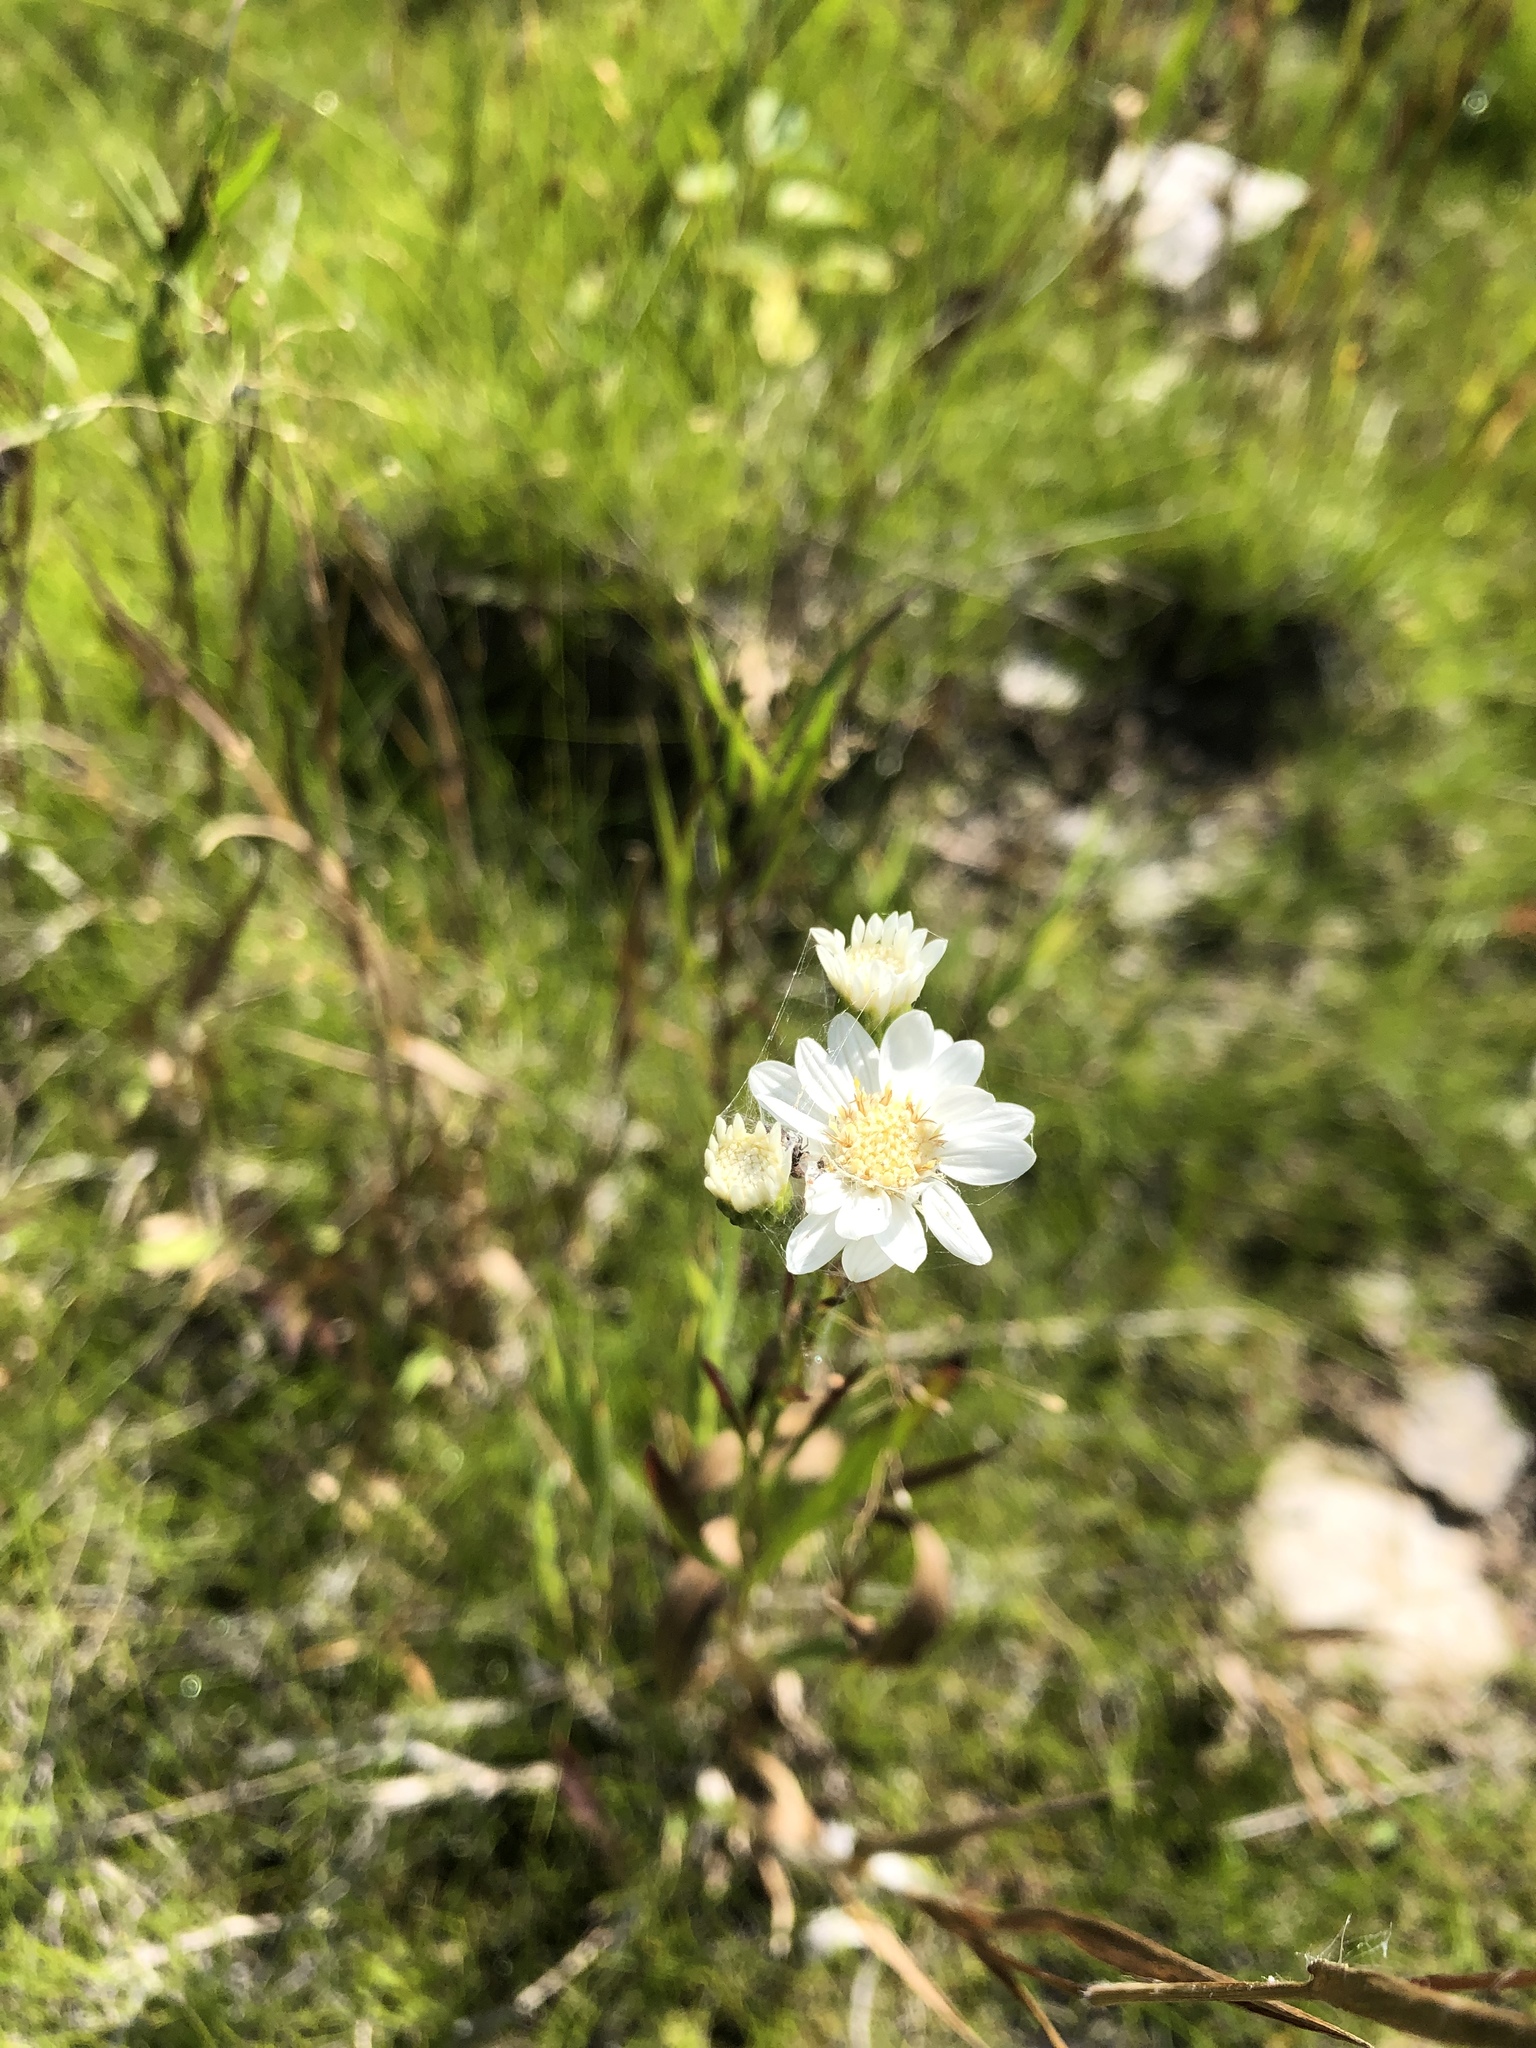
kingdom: Plantae
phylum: Tracheophyta
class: Magnoliopsida
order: Asterales
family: Asteraceae
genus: Solidago
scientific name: Solidago ptarmicoides
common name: White flat-top goldenrod
